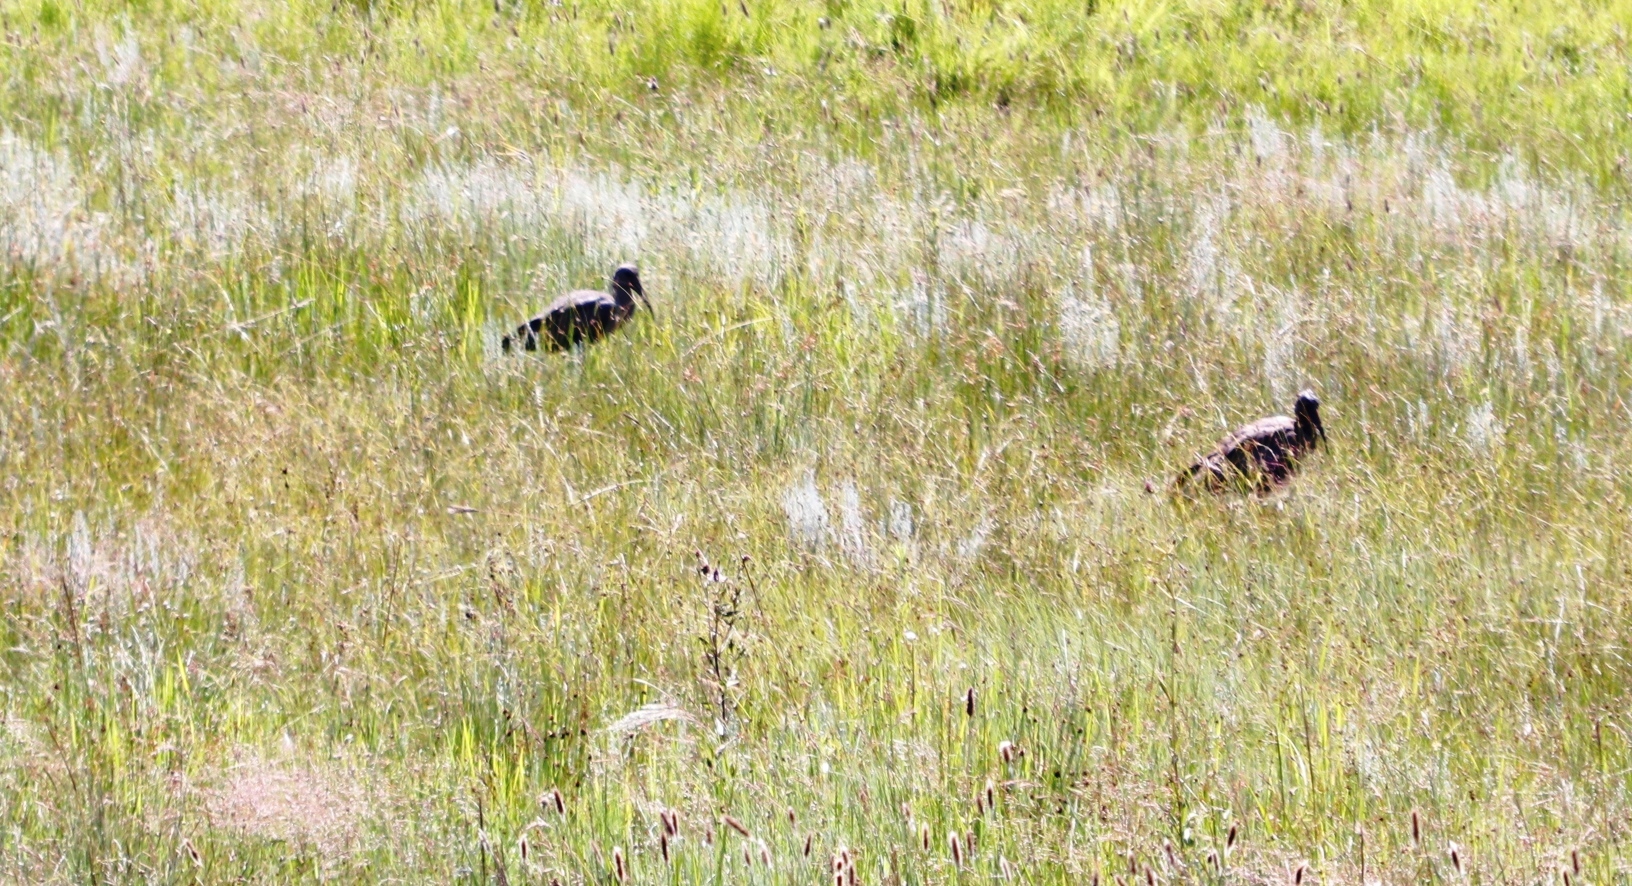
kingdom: Animalia
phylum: Chordata
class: Aves
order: Pelecaniformes
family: Threskiornithidae
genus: Bostrychia
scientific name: Bostrychia hagedash
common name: Hadada ibis
